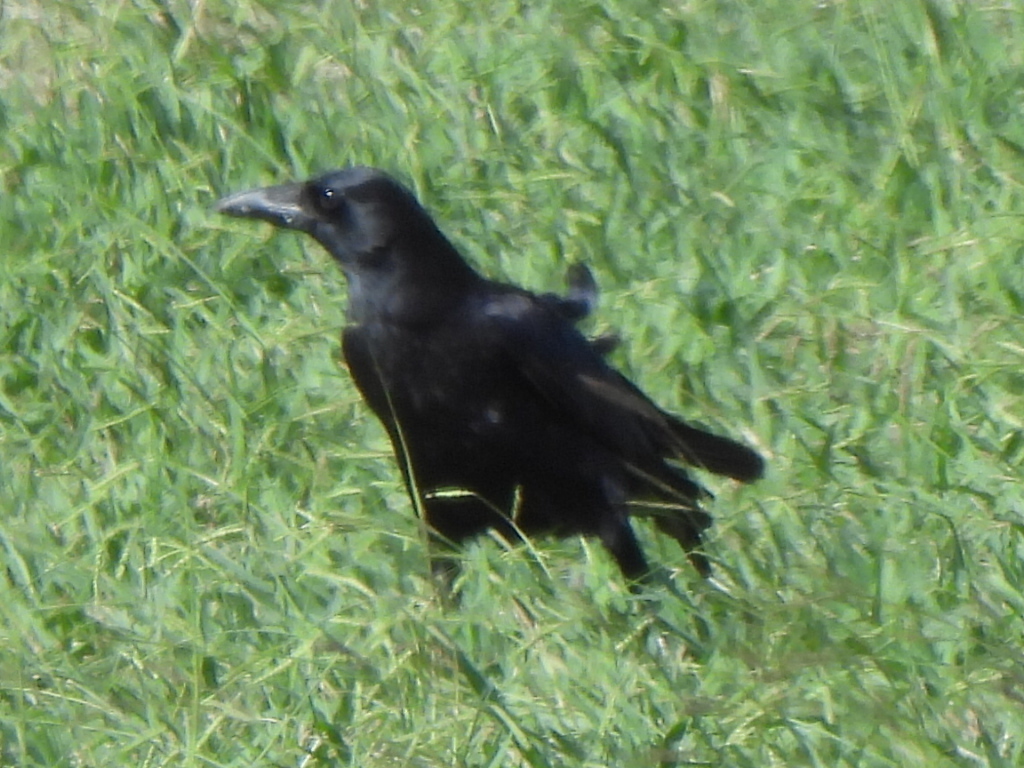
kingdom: Animalia
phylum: Chordata
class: Aves
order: Passeriformes
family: Corvidae
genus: Corvus
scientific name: Corvus brachyrhynchos
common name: American crow
